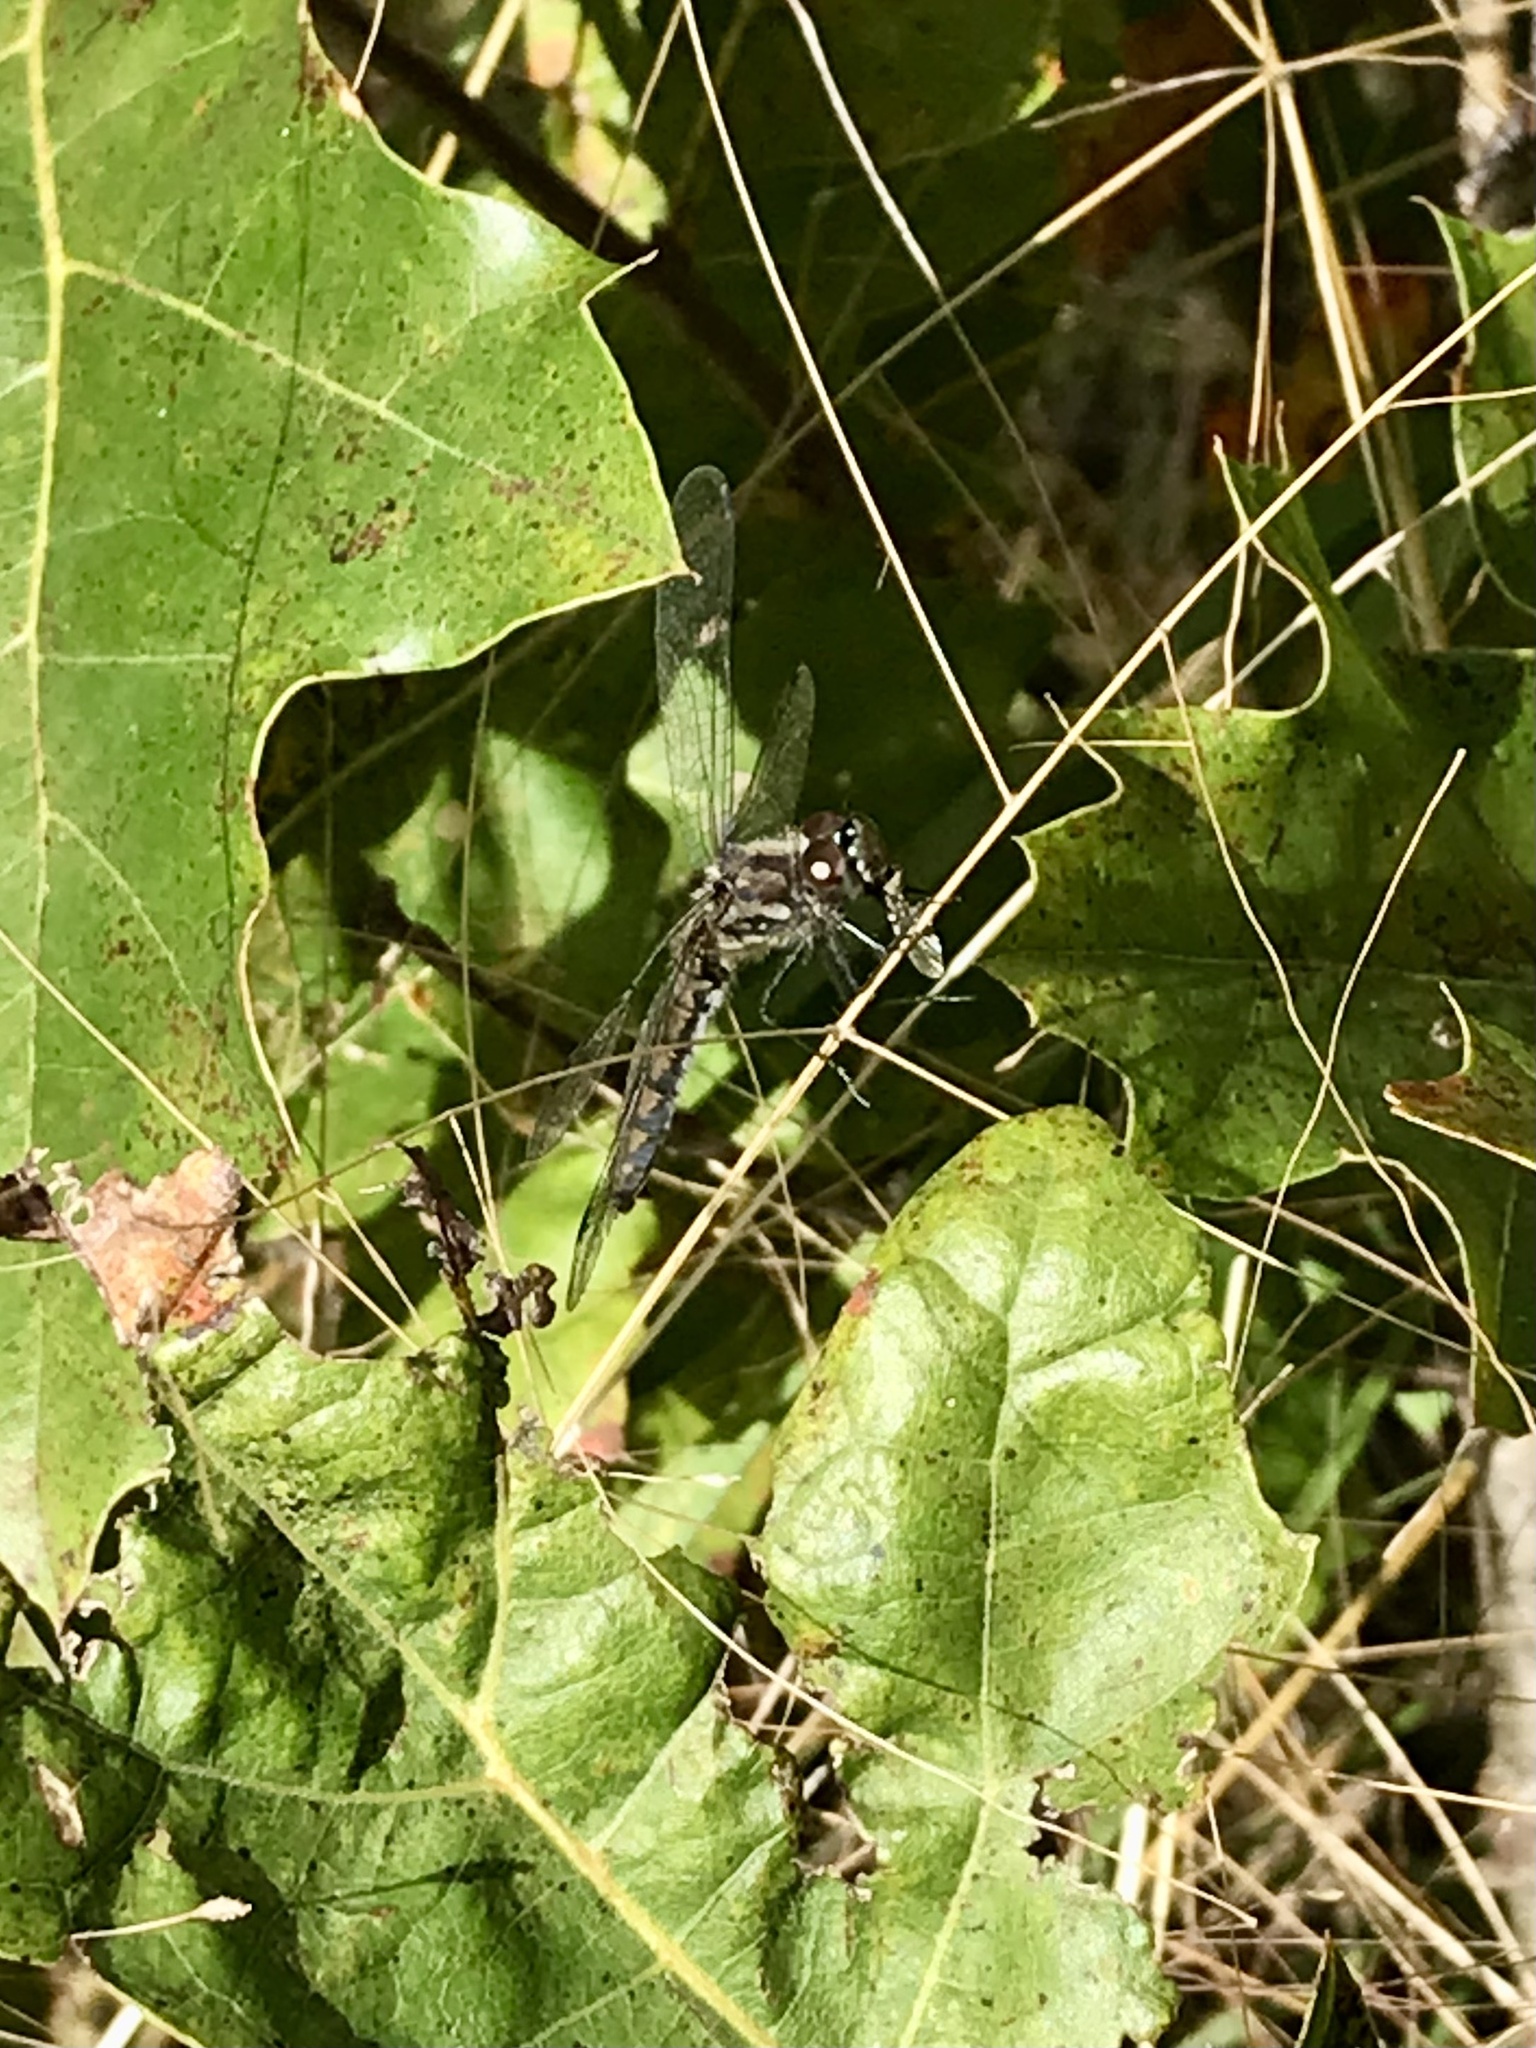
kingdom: Animalia
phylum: Arthropoda
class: Insecta
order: Odonata
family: Libellulidae
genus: Sympetrum
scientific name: Sympetrum danae
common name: Black darter
